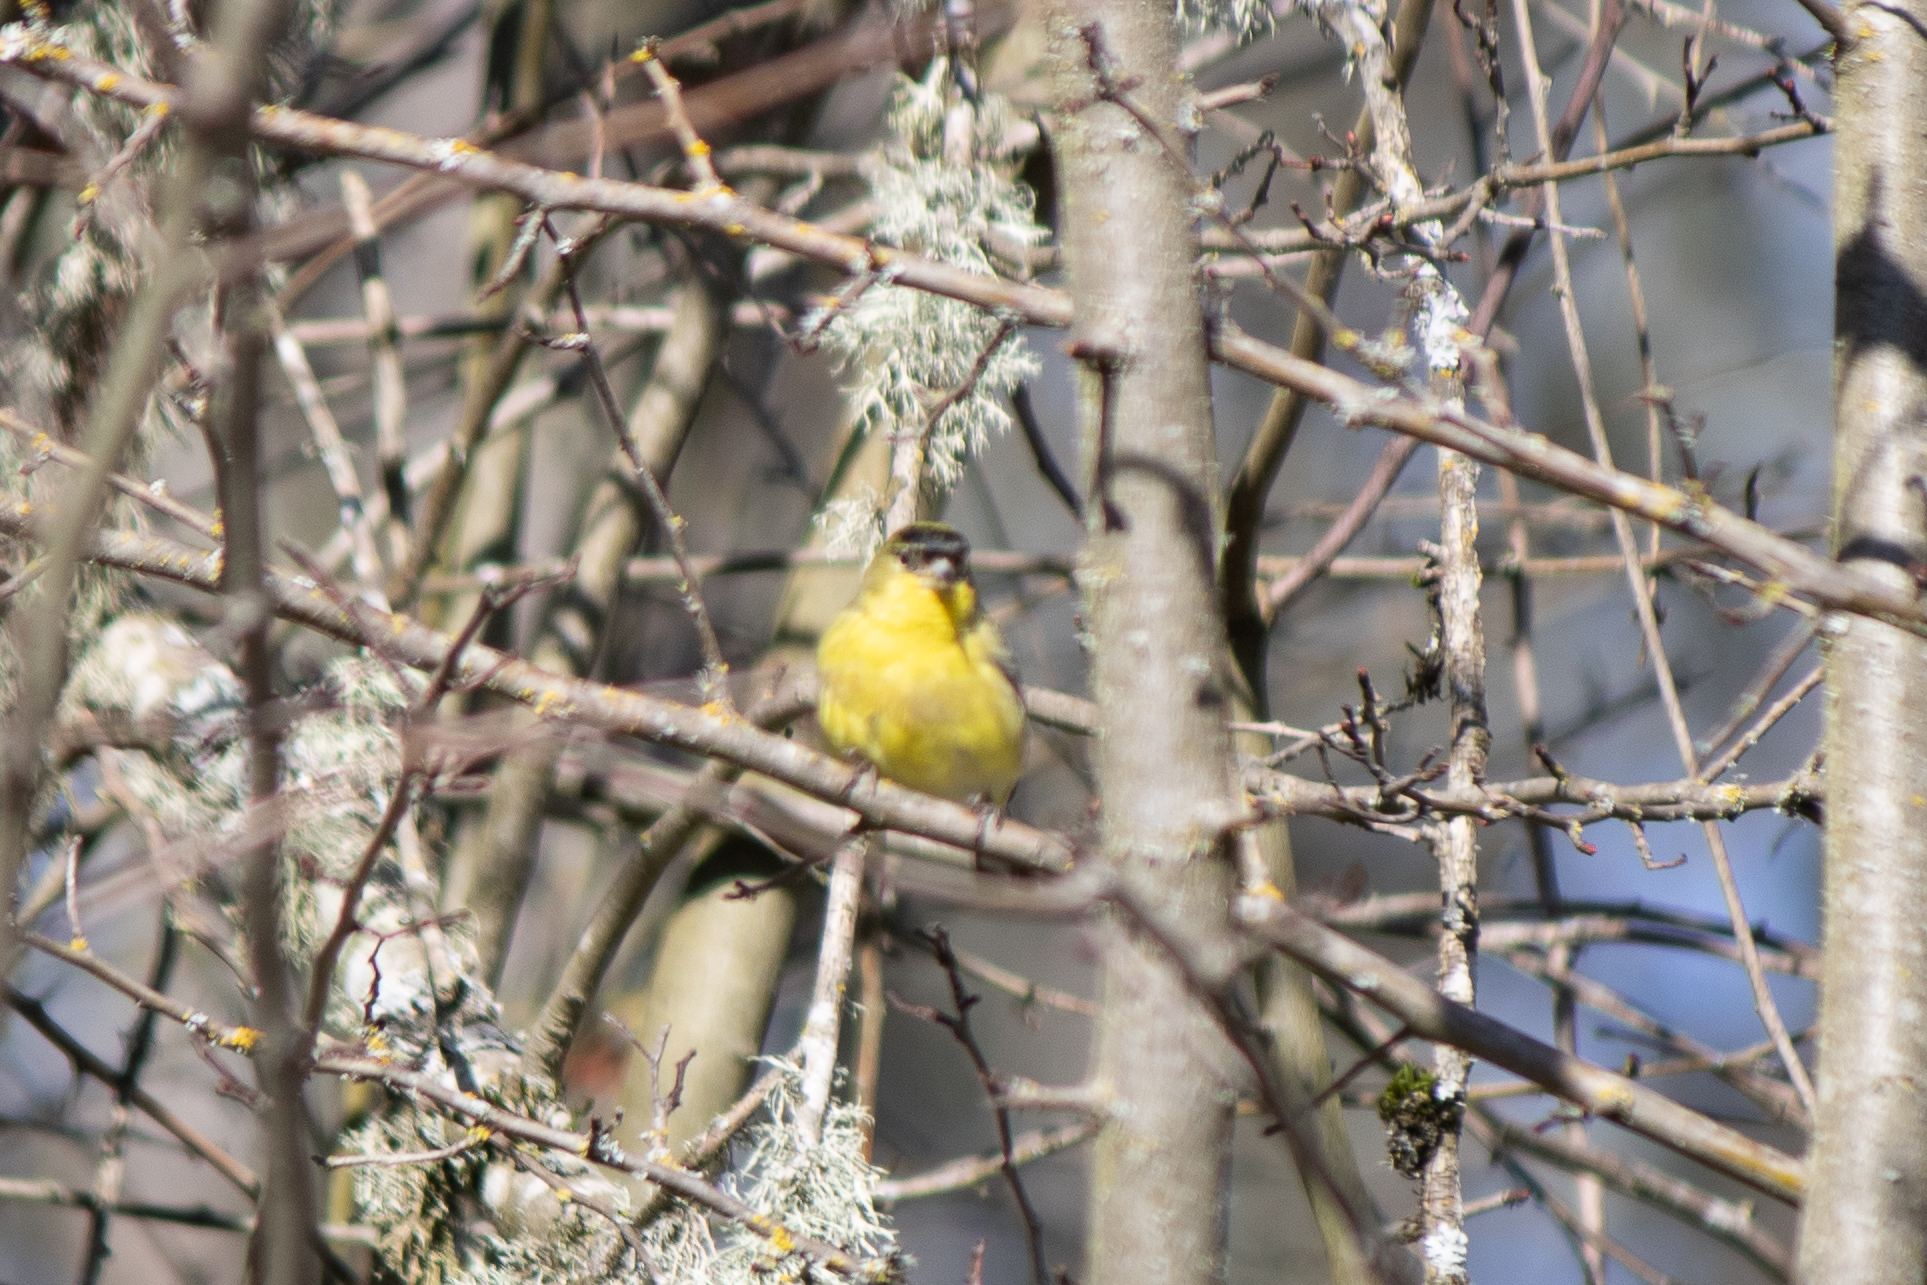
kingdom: Animalia
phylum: Chordata
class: Aves
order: Passeriformes
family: Fringillidae
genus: Spinus
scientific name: Spinus psaltria
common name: Lesser goldfinch
